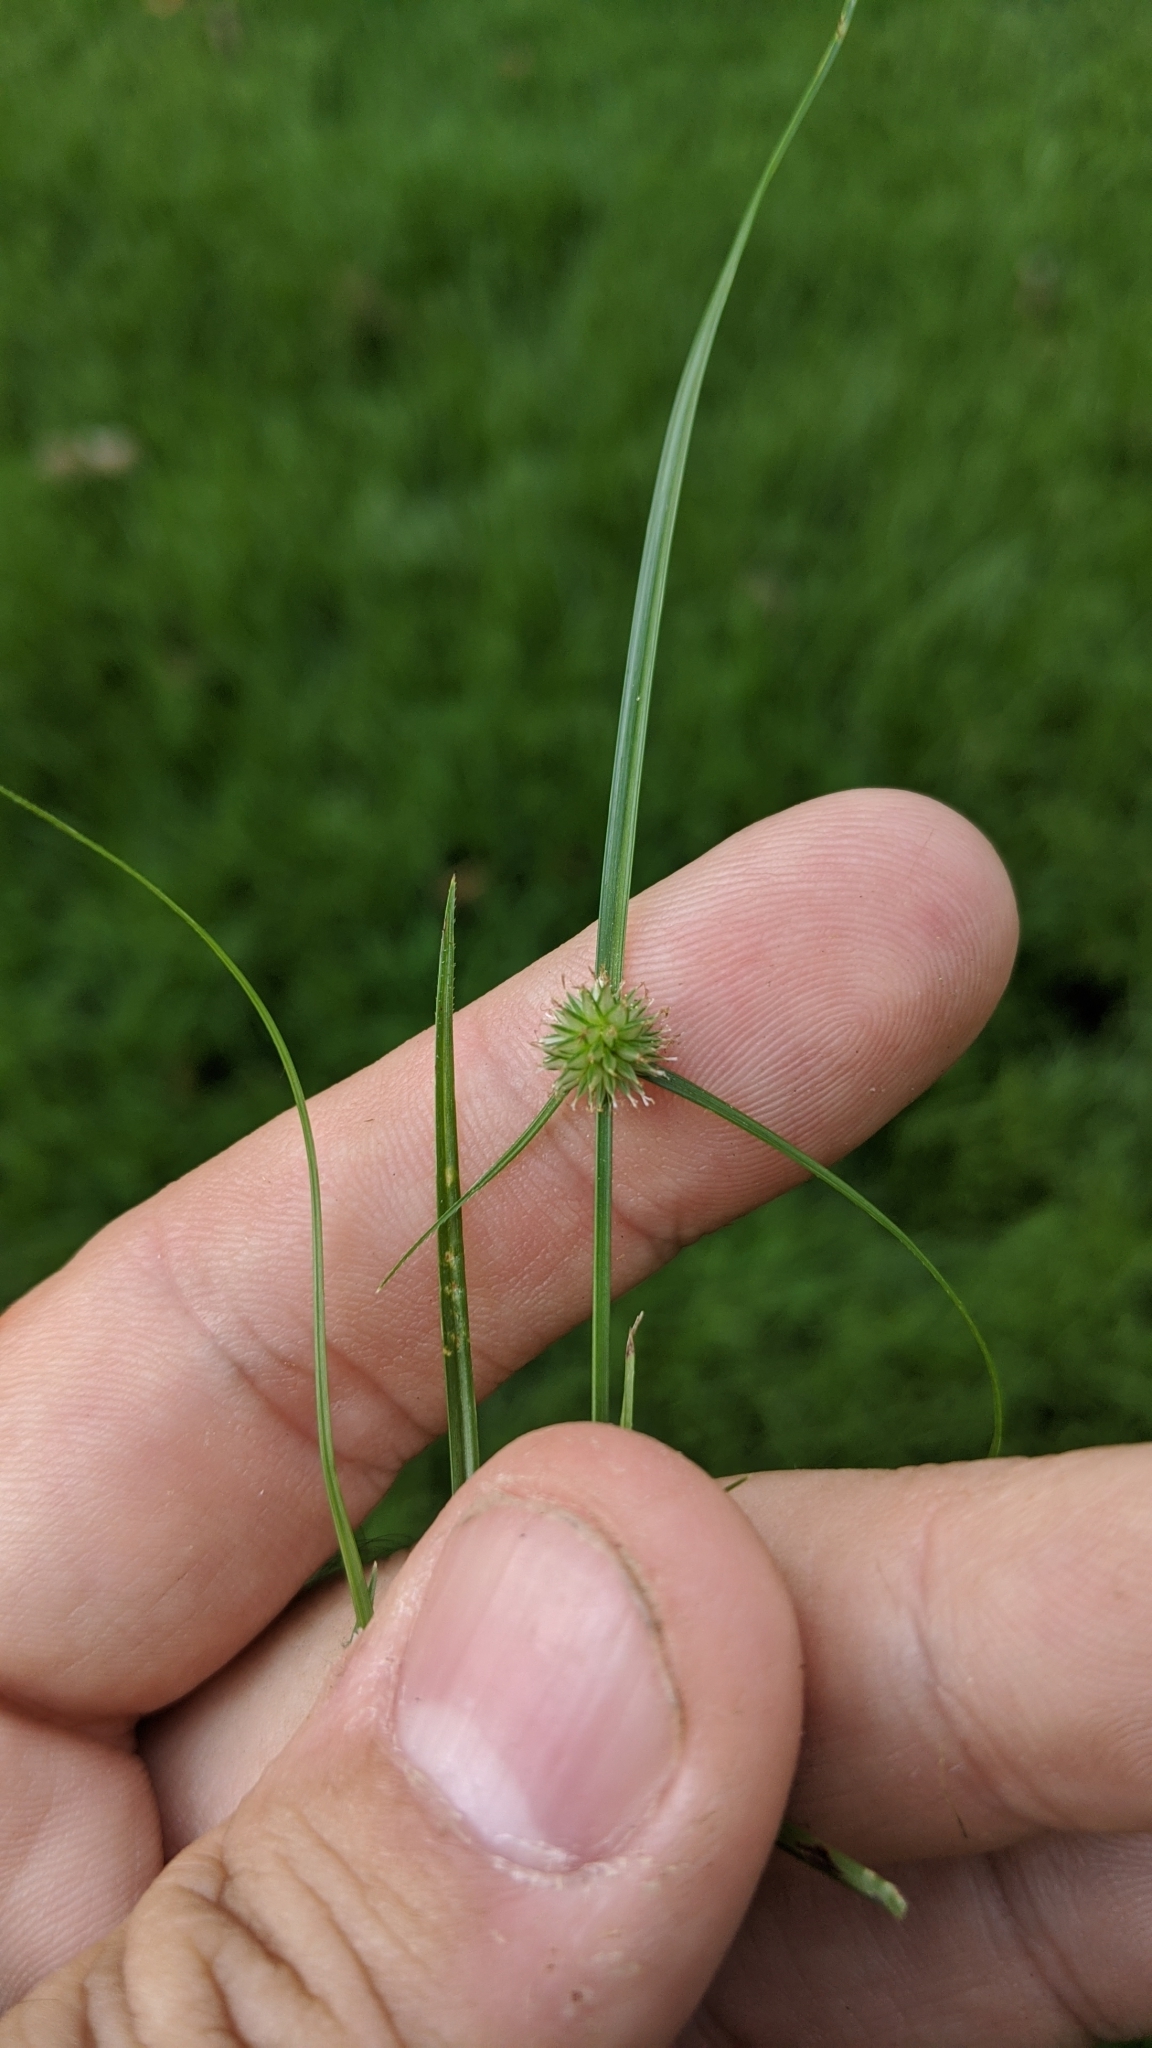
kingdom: Plantae
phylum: Tracheophyta
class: Liliopsida
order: Poales
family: Cyperaceae
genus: Cyperus
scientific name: Cyperus brevifolius
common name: Globe kyllinga
